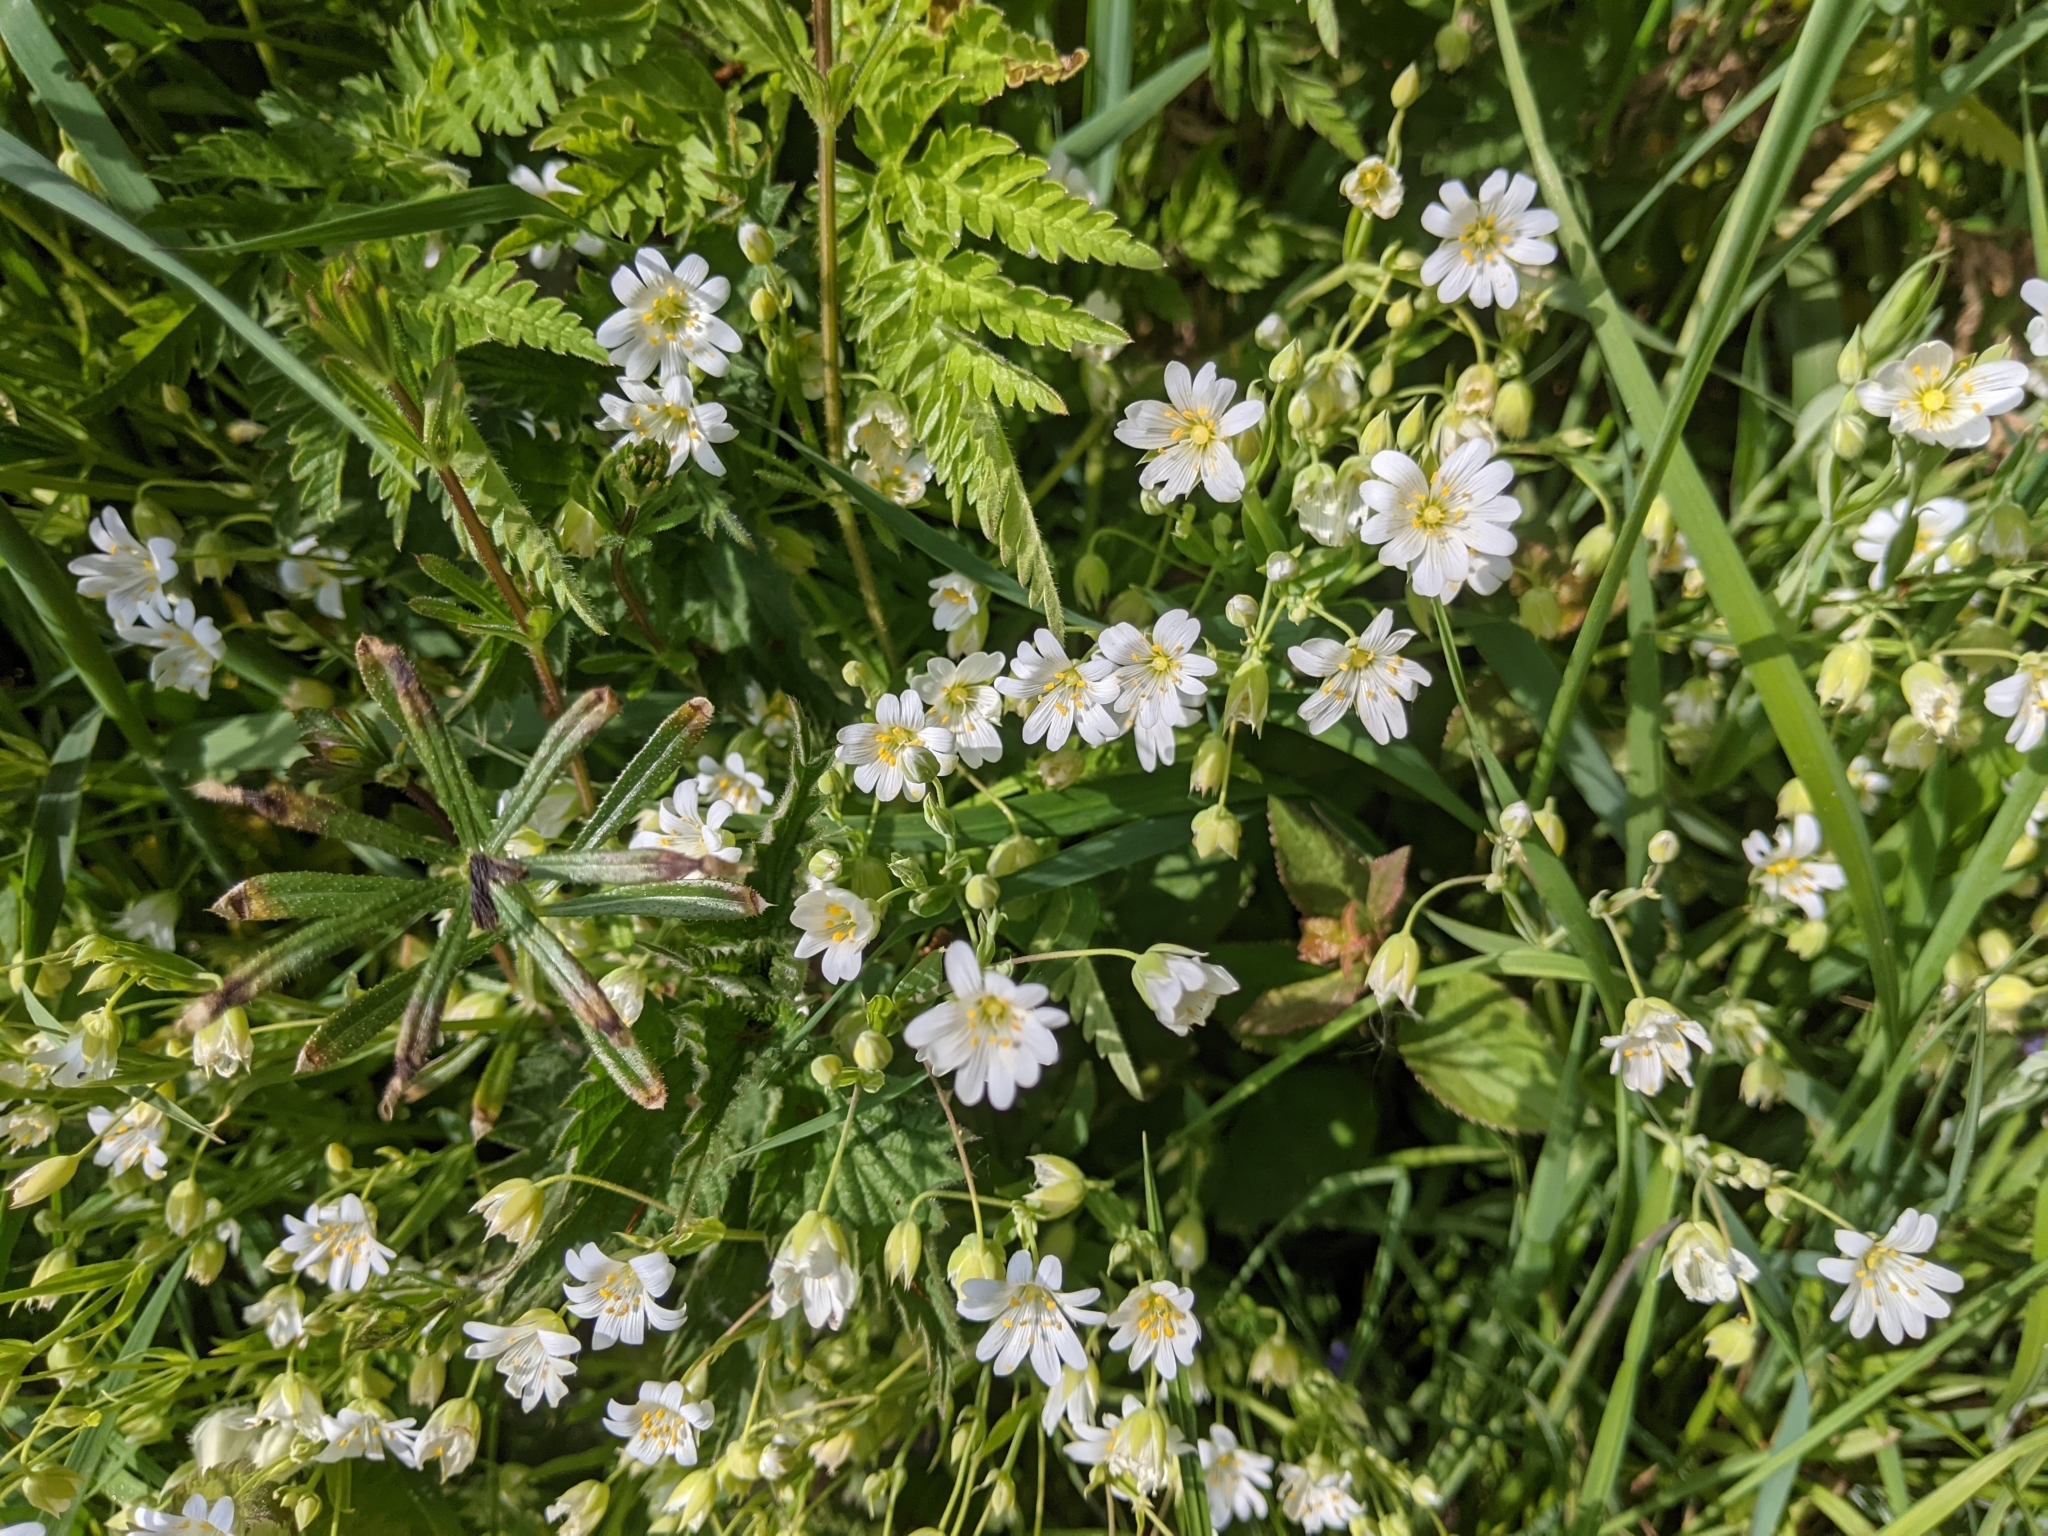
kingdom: Plantae
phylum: Tracheophyta
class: Magnoliopsida
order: Caryophyllales
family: Caryophyllaceae
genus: Rabelera
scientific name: Rabelera holostea
